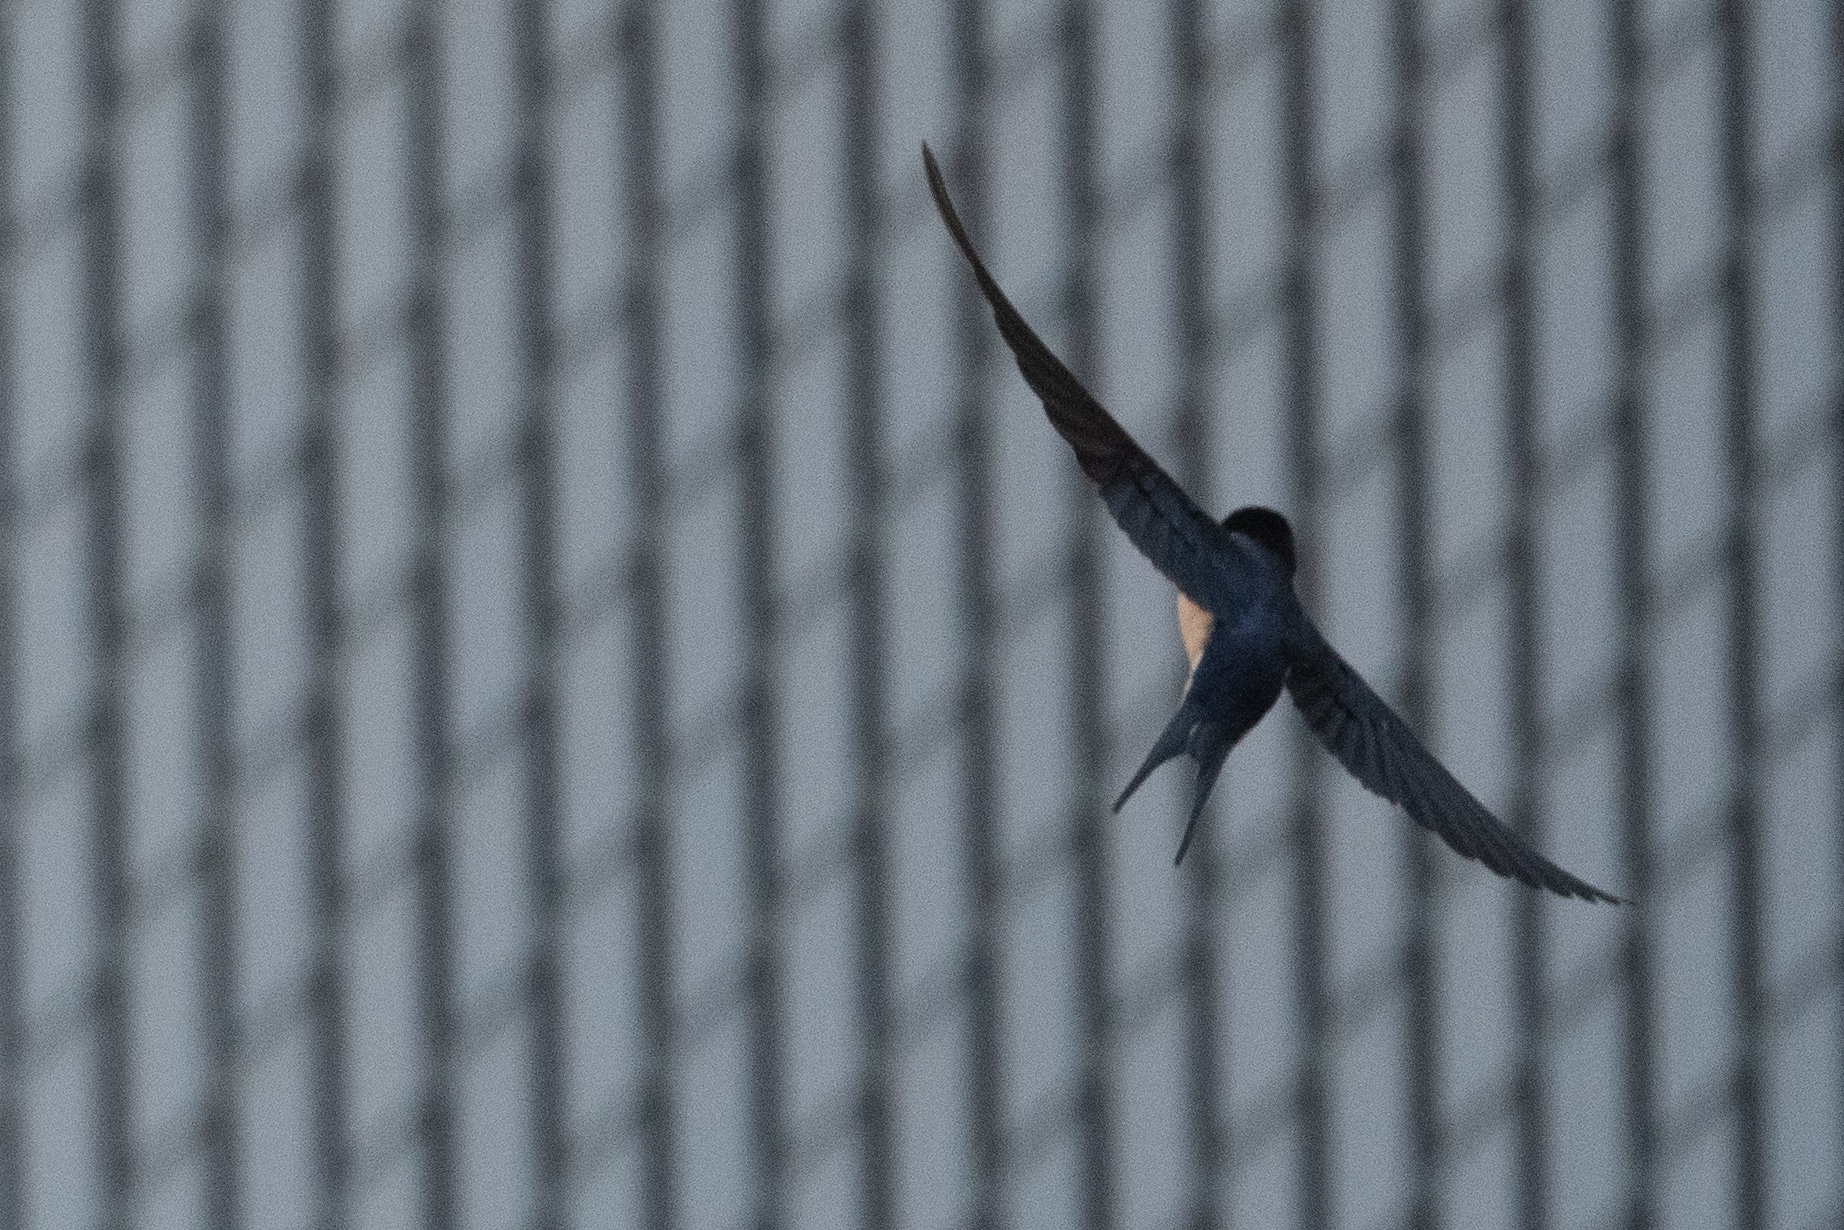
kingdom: Animalia
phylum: Chordata
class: Aves
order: Passeriformes
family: Hirundinidae
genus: Hirundo
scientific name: Hirundo rustica
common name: Barn swallow
